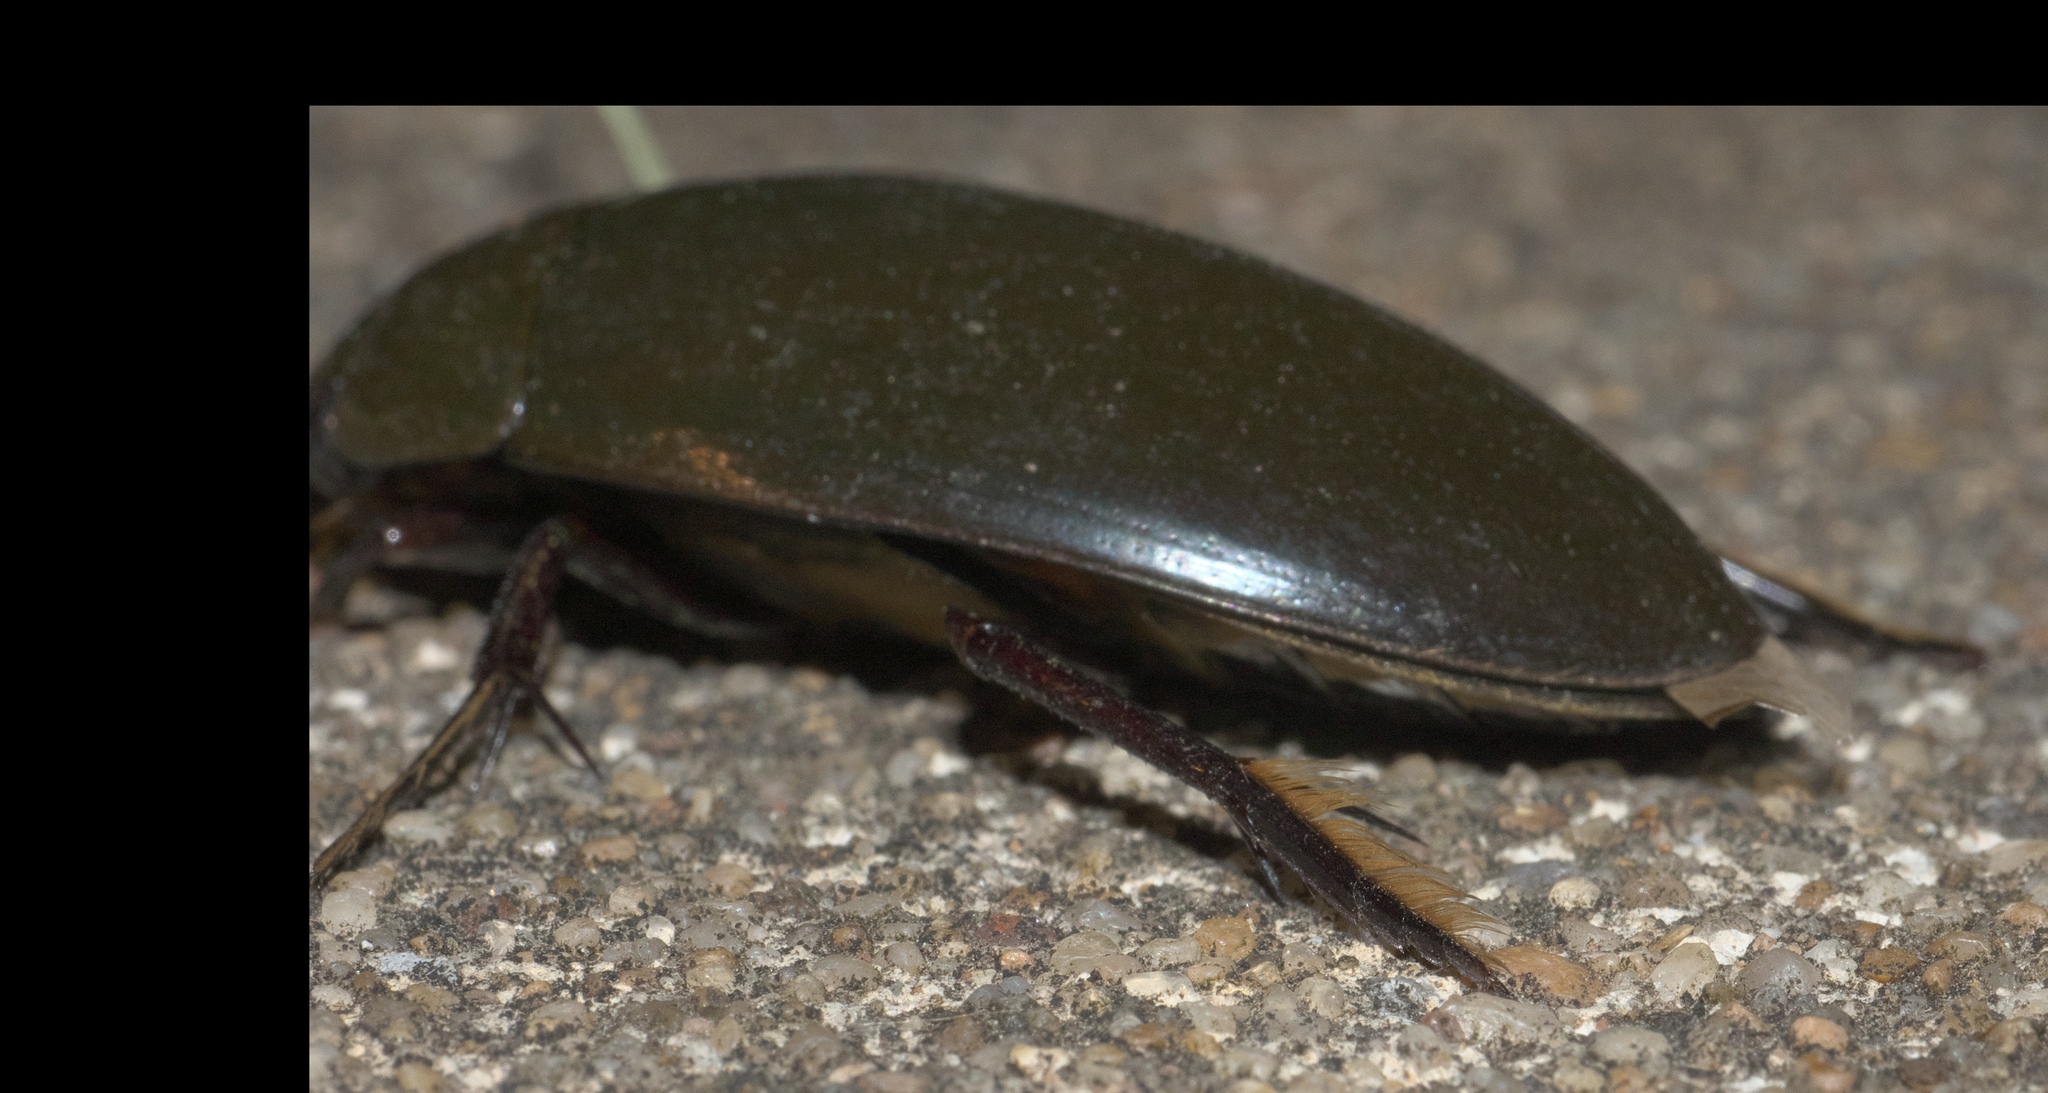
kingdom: Animalia
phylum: Arthropoda
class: Insecta
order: Coleoptera
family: Hydrophilidae
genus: Hydrophilus
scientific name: Hydrophilus triangularis
